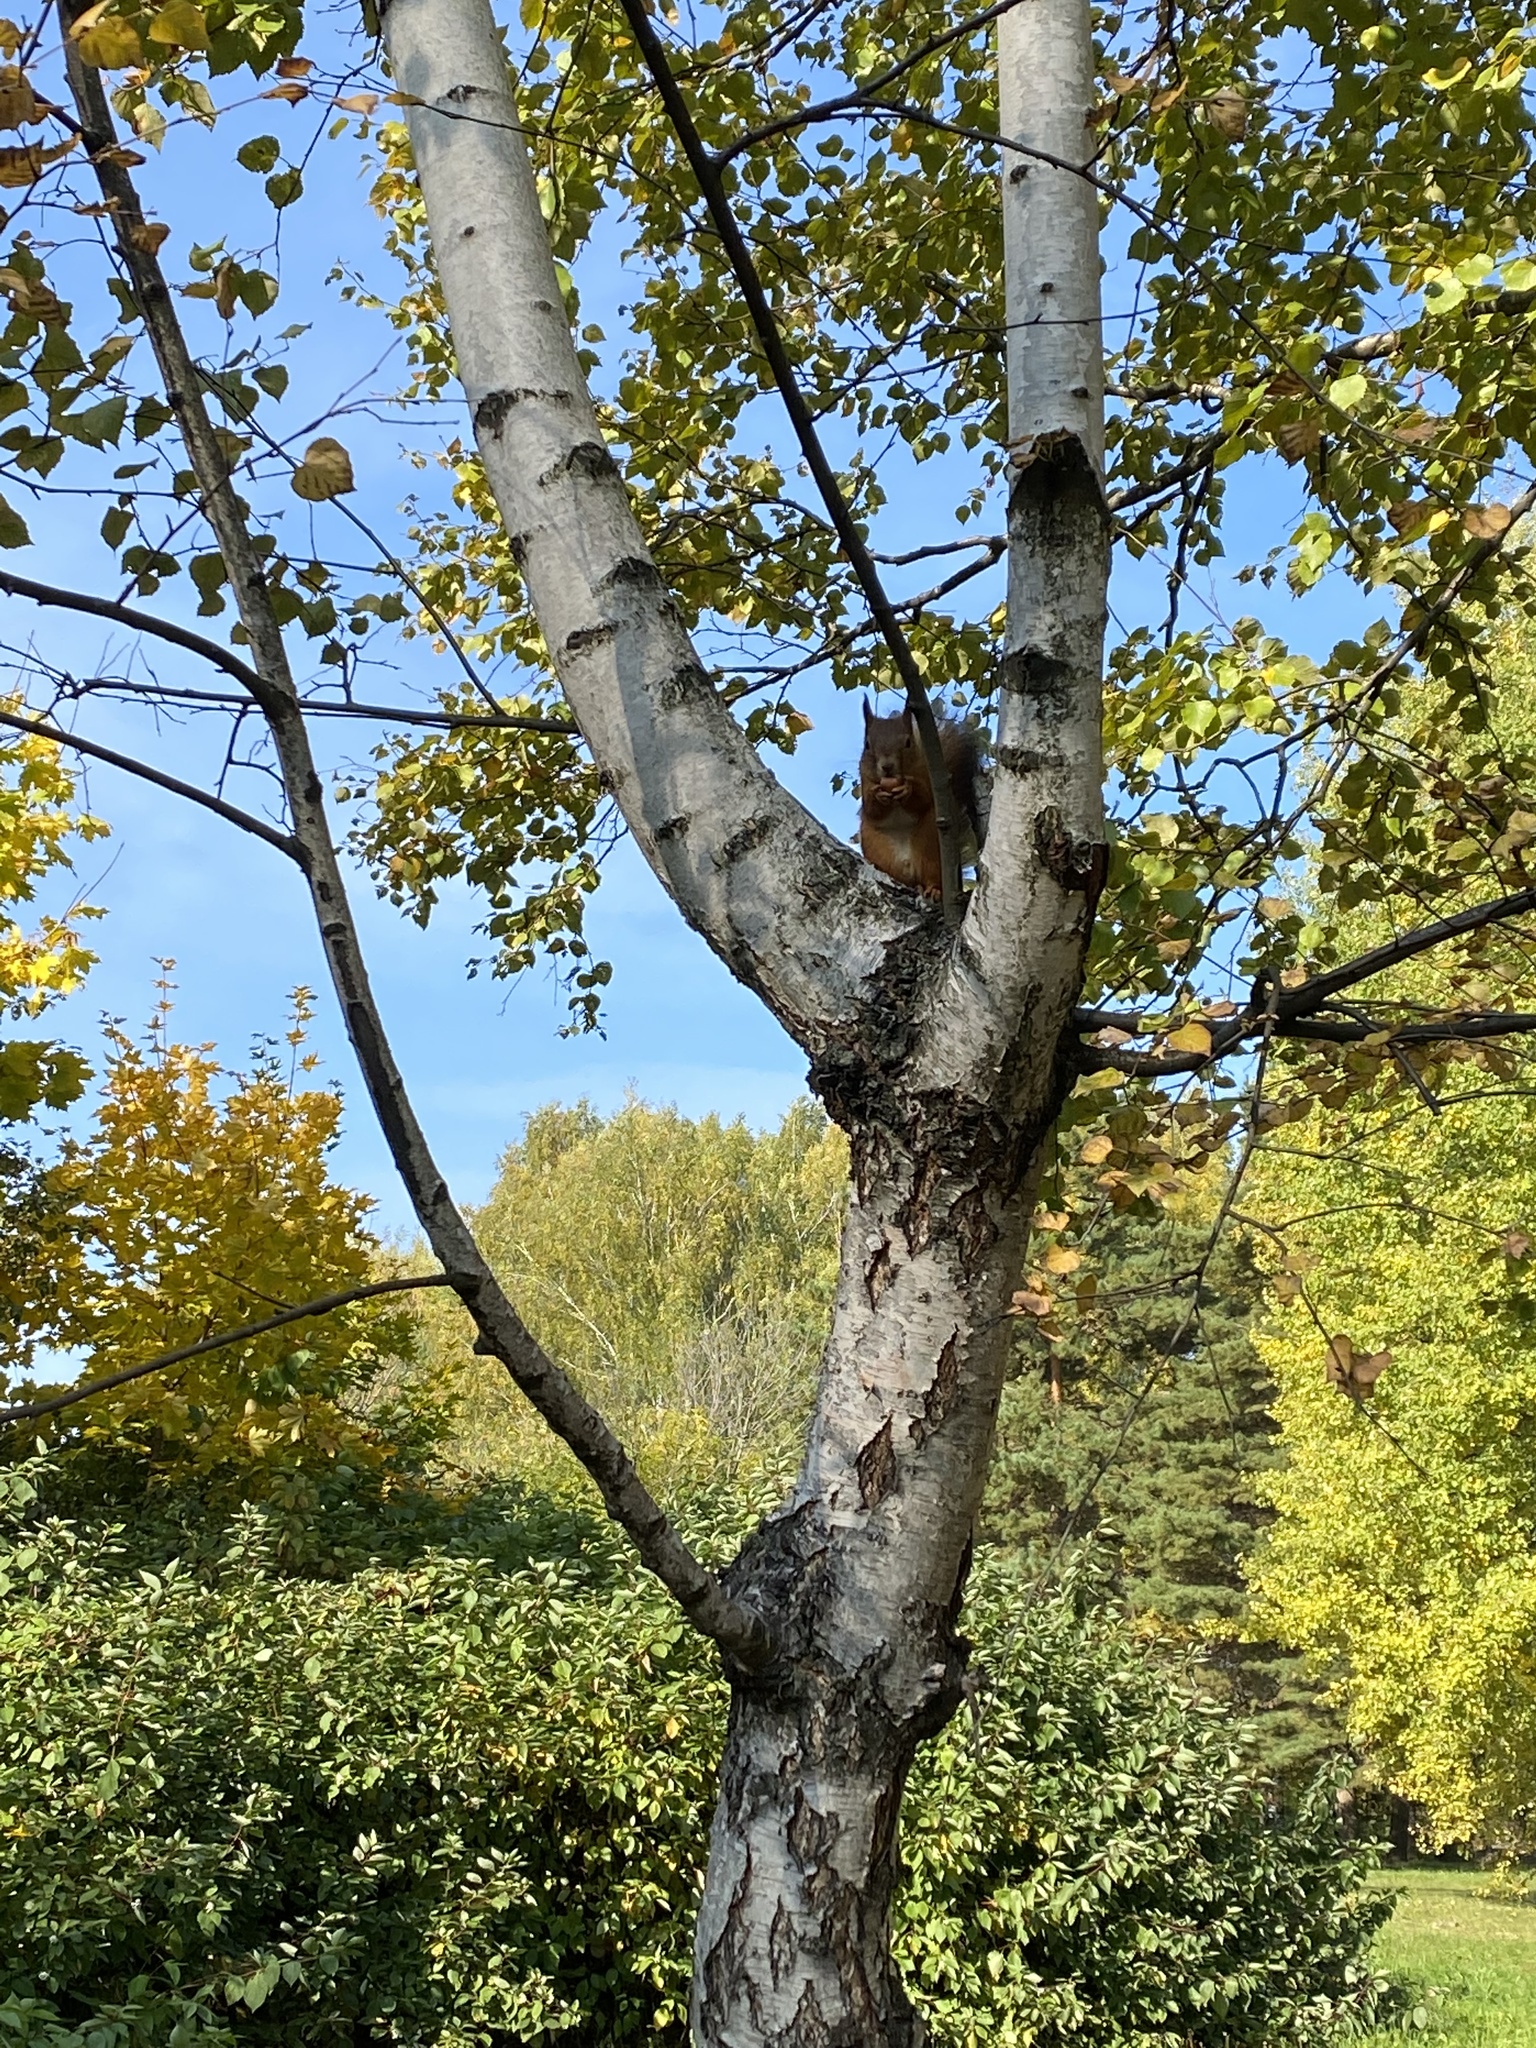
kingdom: Animalia
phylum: Chordata
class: Mammalia
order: Rodentia
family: Sciuridae
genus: Sciurus
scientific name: Sciurus vulgaris
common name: Eurasian red squirrel
